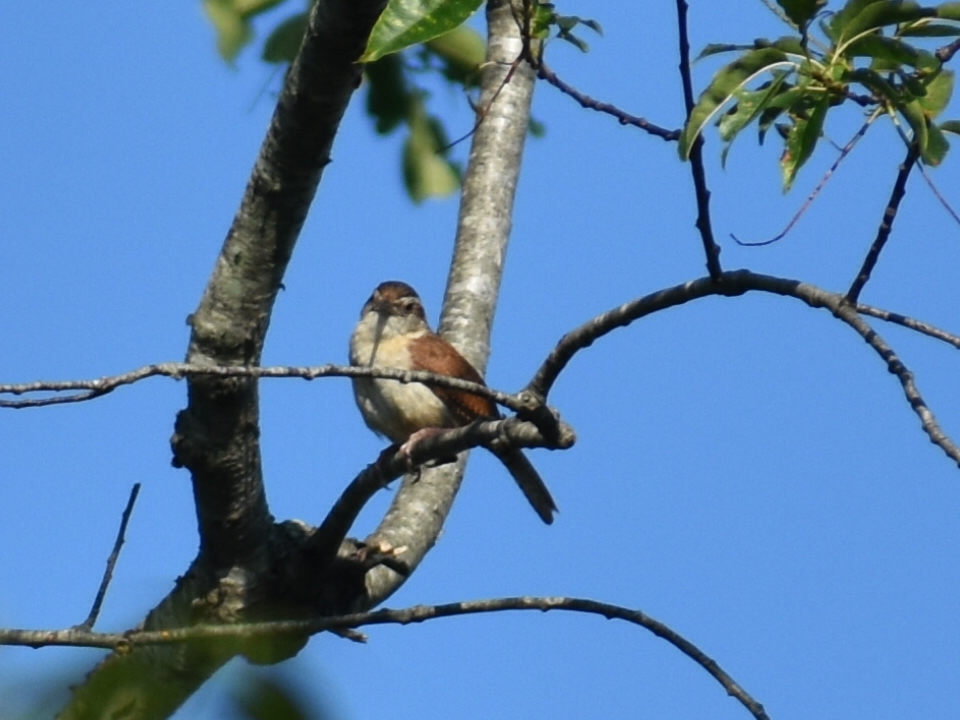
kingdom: Animalia
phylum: Chordata
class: Aves
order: Passeriformes
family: Troglodytidae
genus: Thryothorus
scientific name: Thryothorus ludovicianus
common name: Carolina wren
